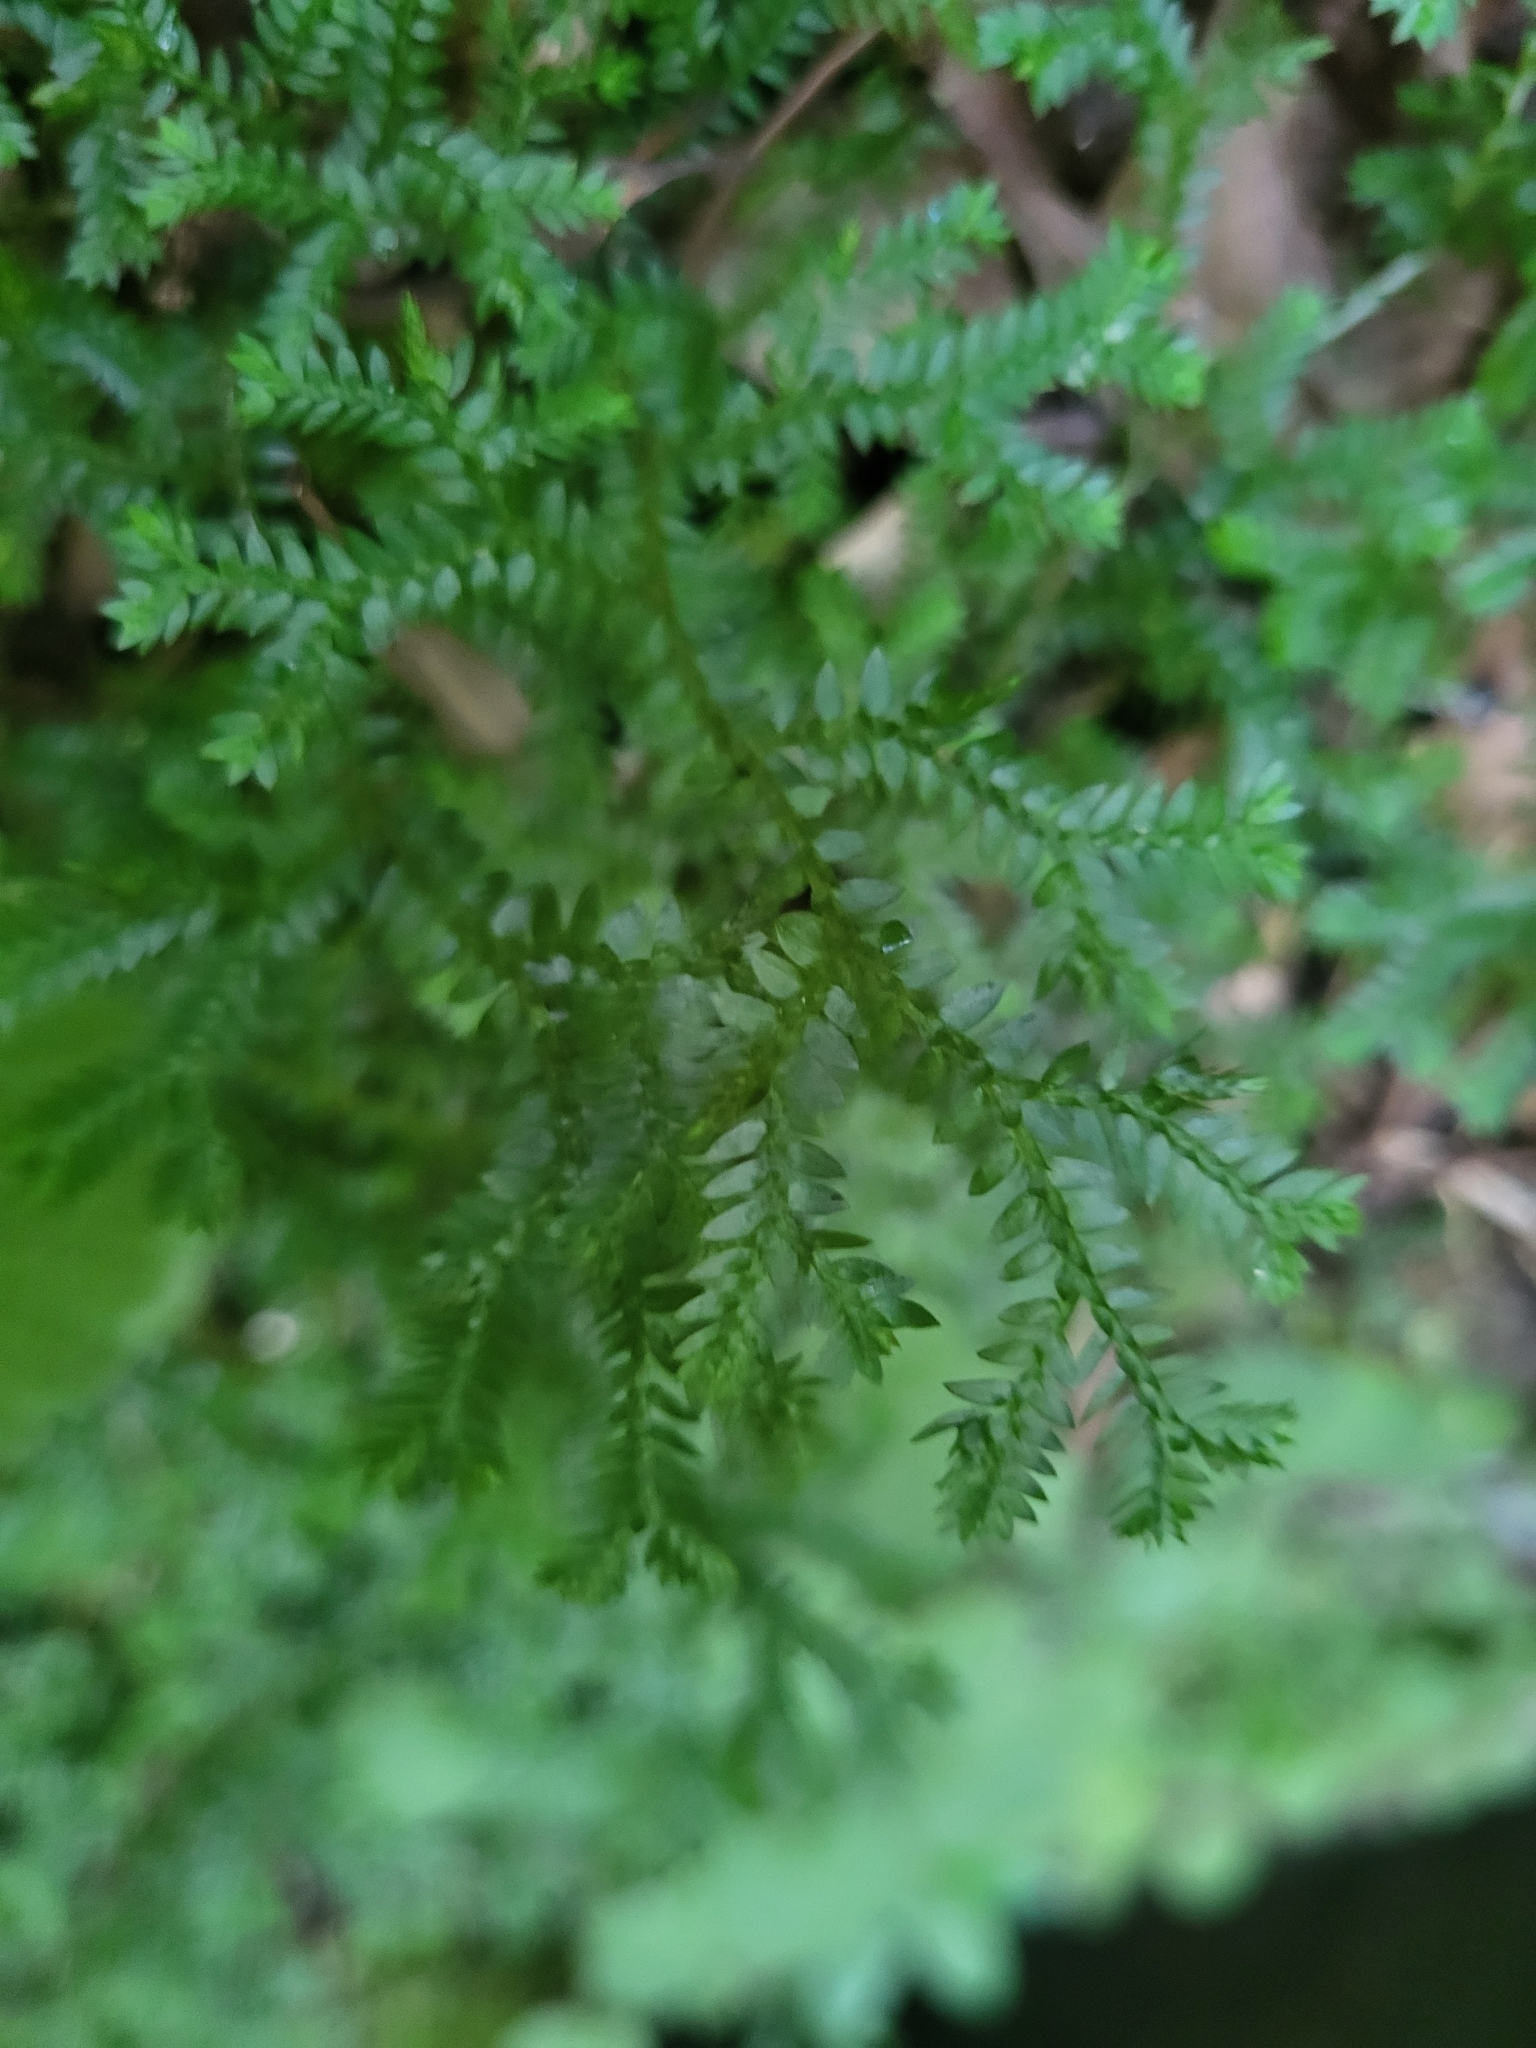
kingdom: Plantae
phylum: Tracheophyta
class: Lycopodiopsida
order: Selaginellales
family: Selaginellaceae
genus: Selaginella
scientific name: Selaginella kraussiana
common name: Krauss' spikemoss
